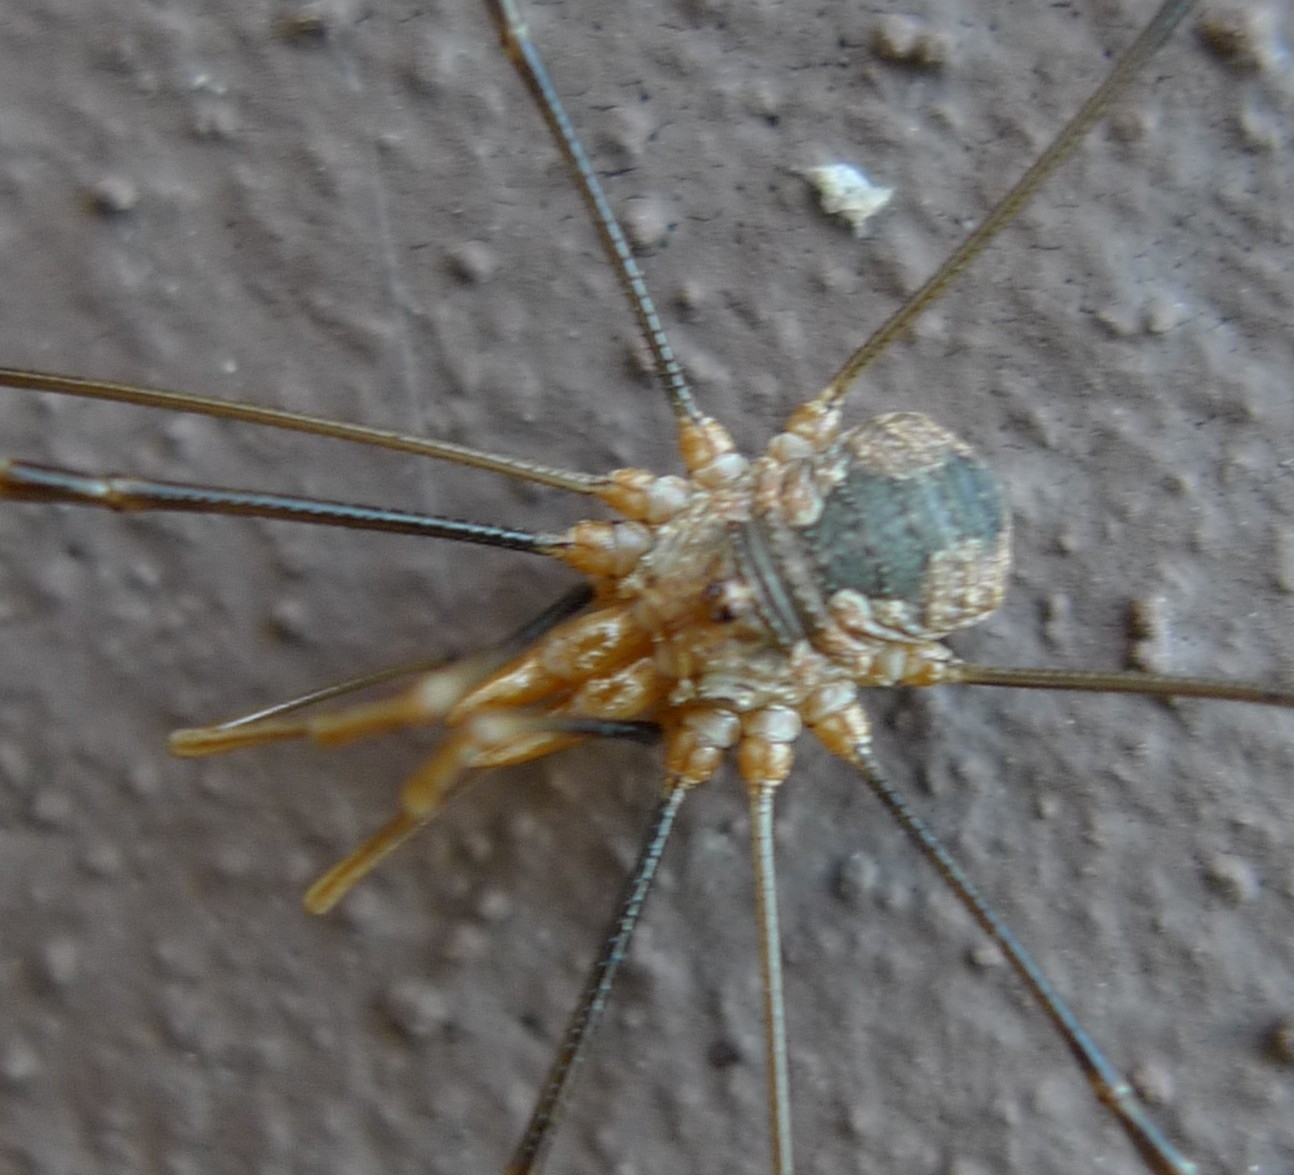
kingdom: Animalia
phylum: Arthropoda
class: Arachnida
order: Opiliones
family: Phalangiidae
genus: Phalangium
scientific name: Phalangium opilio
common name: Daddy longleg
